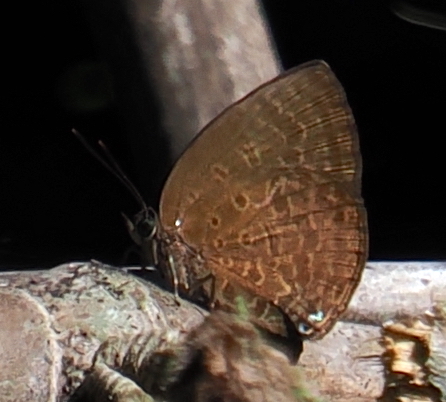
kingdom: Animalia
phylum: Arthropoda
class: Insecta
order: Lepidoptera
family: Lycaenidae
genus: Arhopala
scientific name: Arhopala antimuta
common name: Small tailless oakblue
